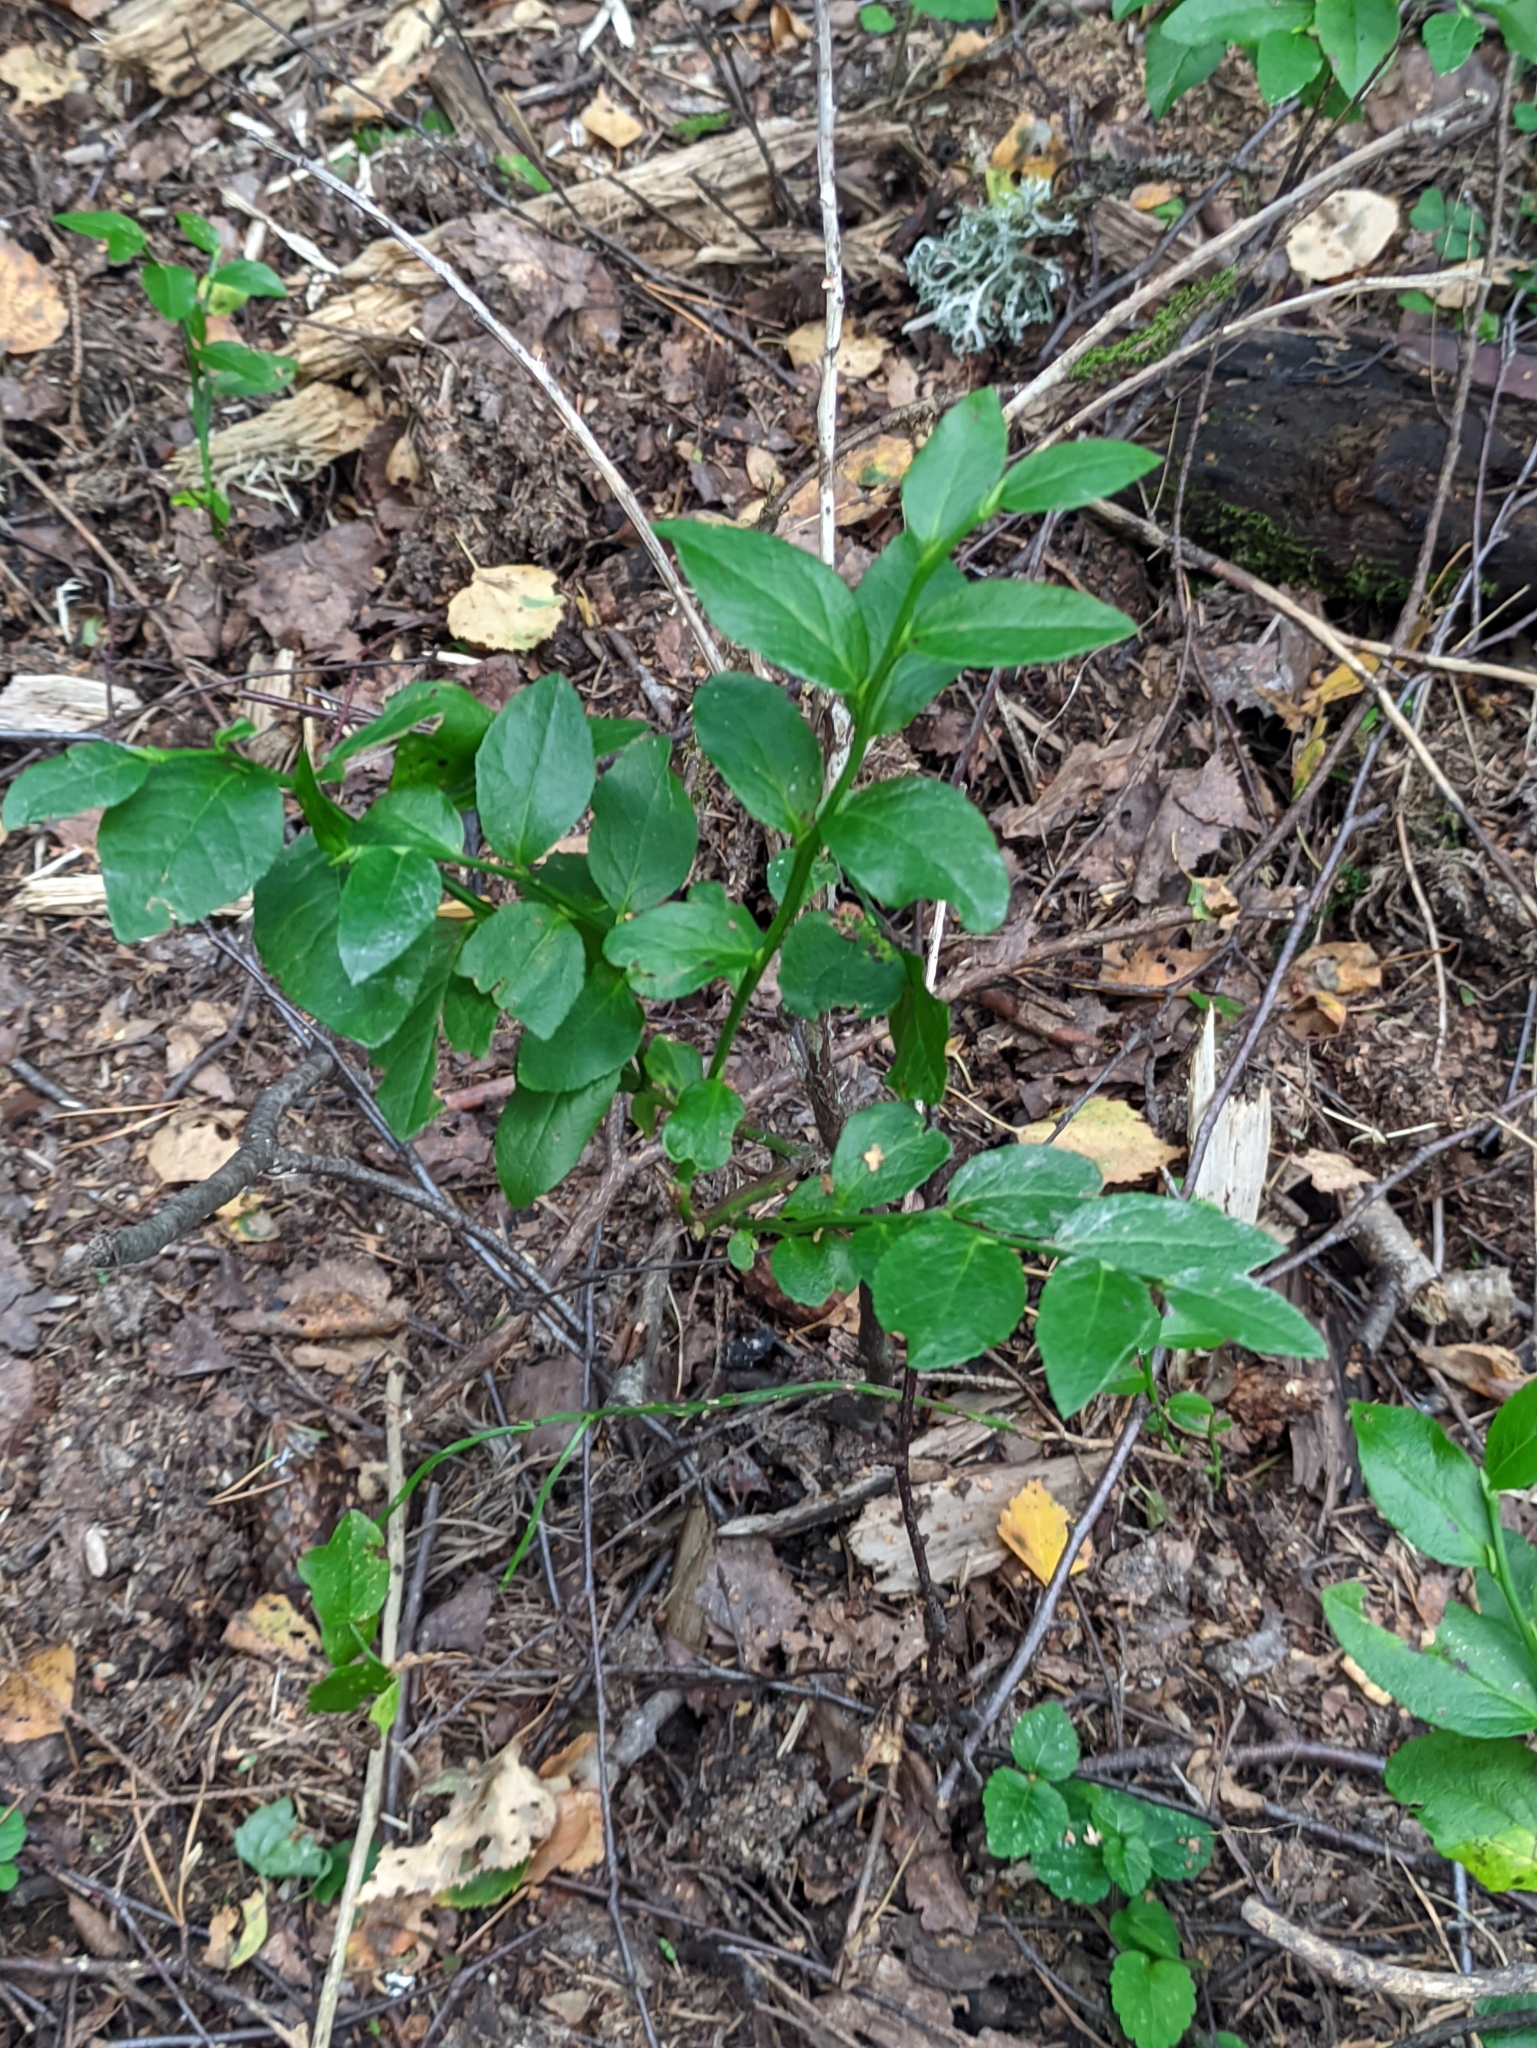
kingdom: Plantae
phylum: Tracheophyta
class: Magnoliopsida
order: Ericales
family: Ericaceae
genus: Vaccinium
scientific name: Vaccinium myrtillus
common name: Bilberry
